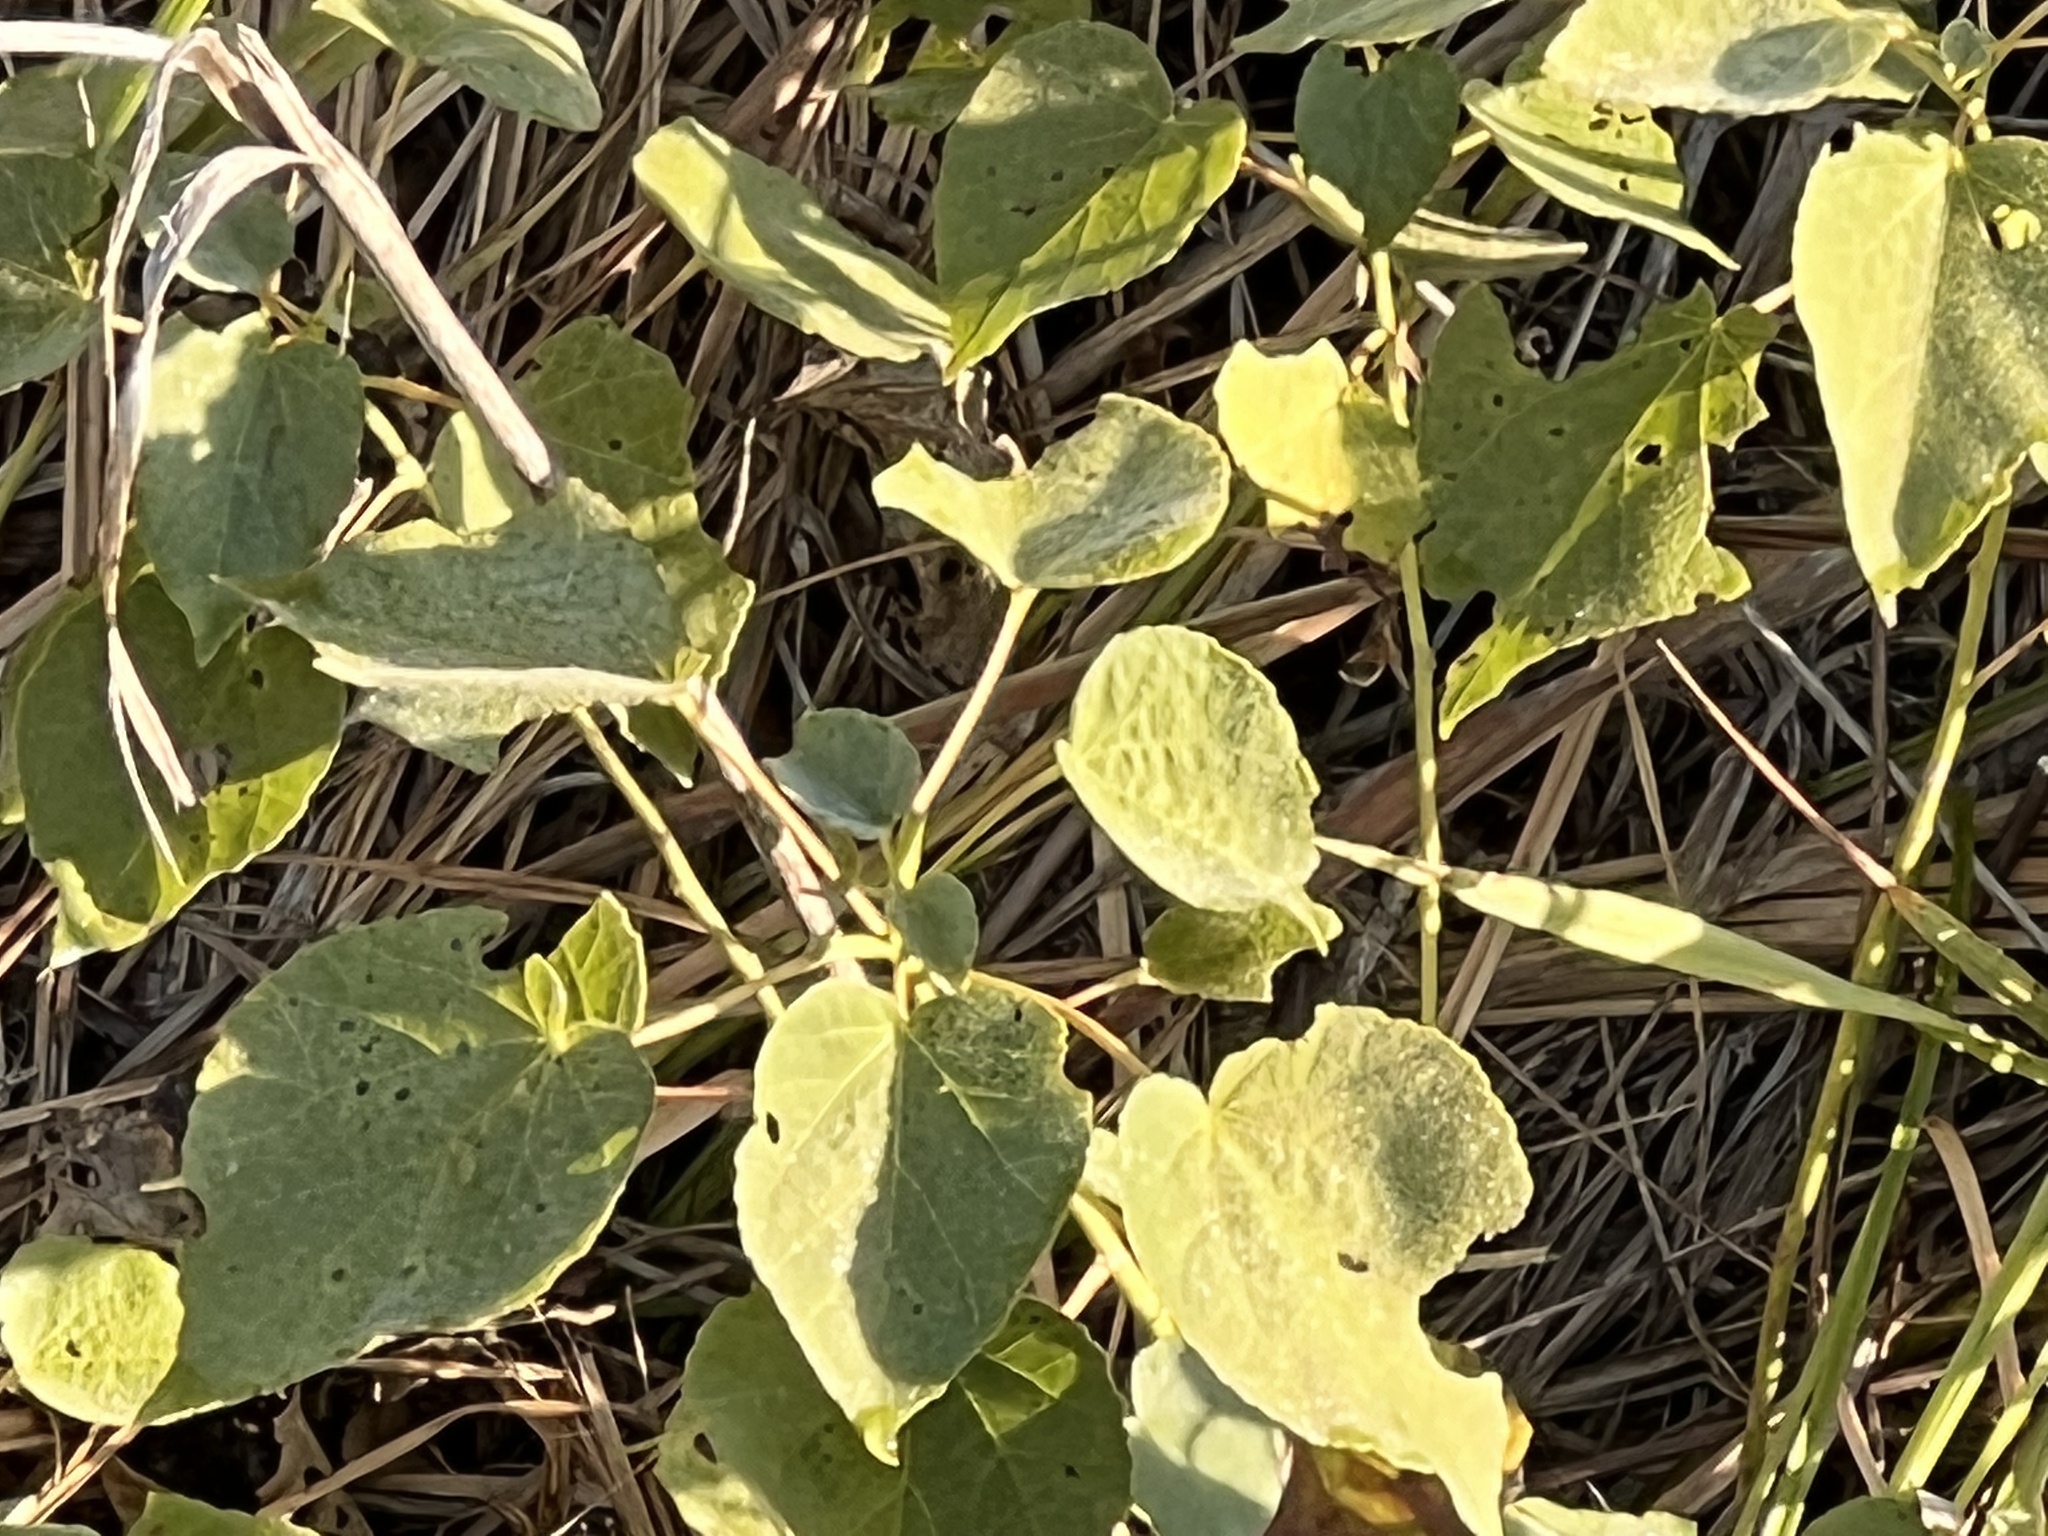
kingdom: Plantae
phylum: Tracheophyta
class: Magnoliopsida
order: Malvales
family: Malvaceae
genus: Hibiscus
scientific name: Hibiscus moscheutos
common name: Common rose-mallow
